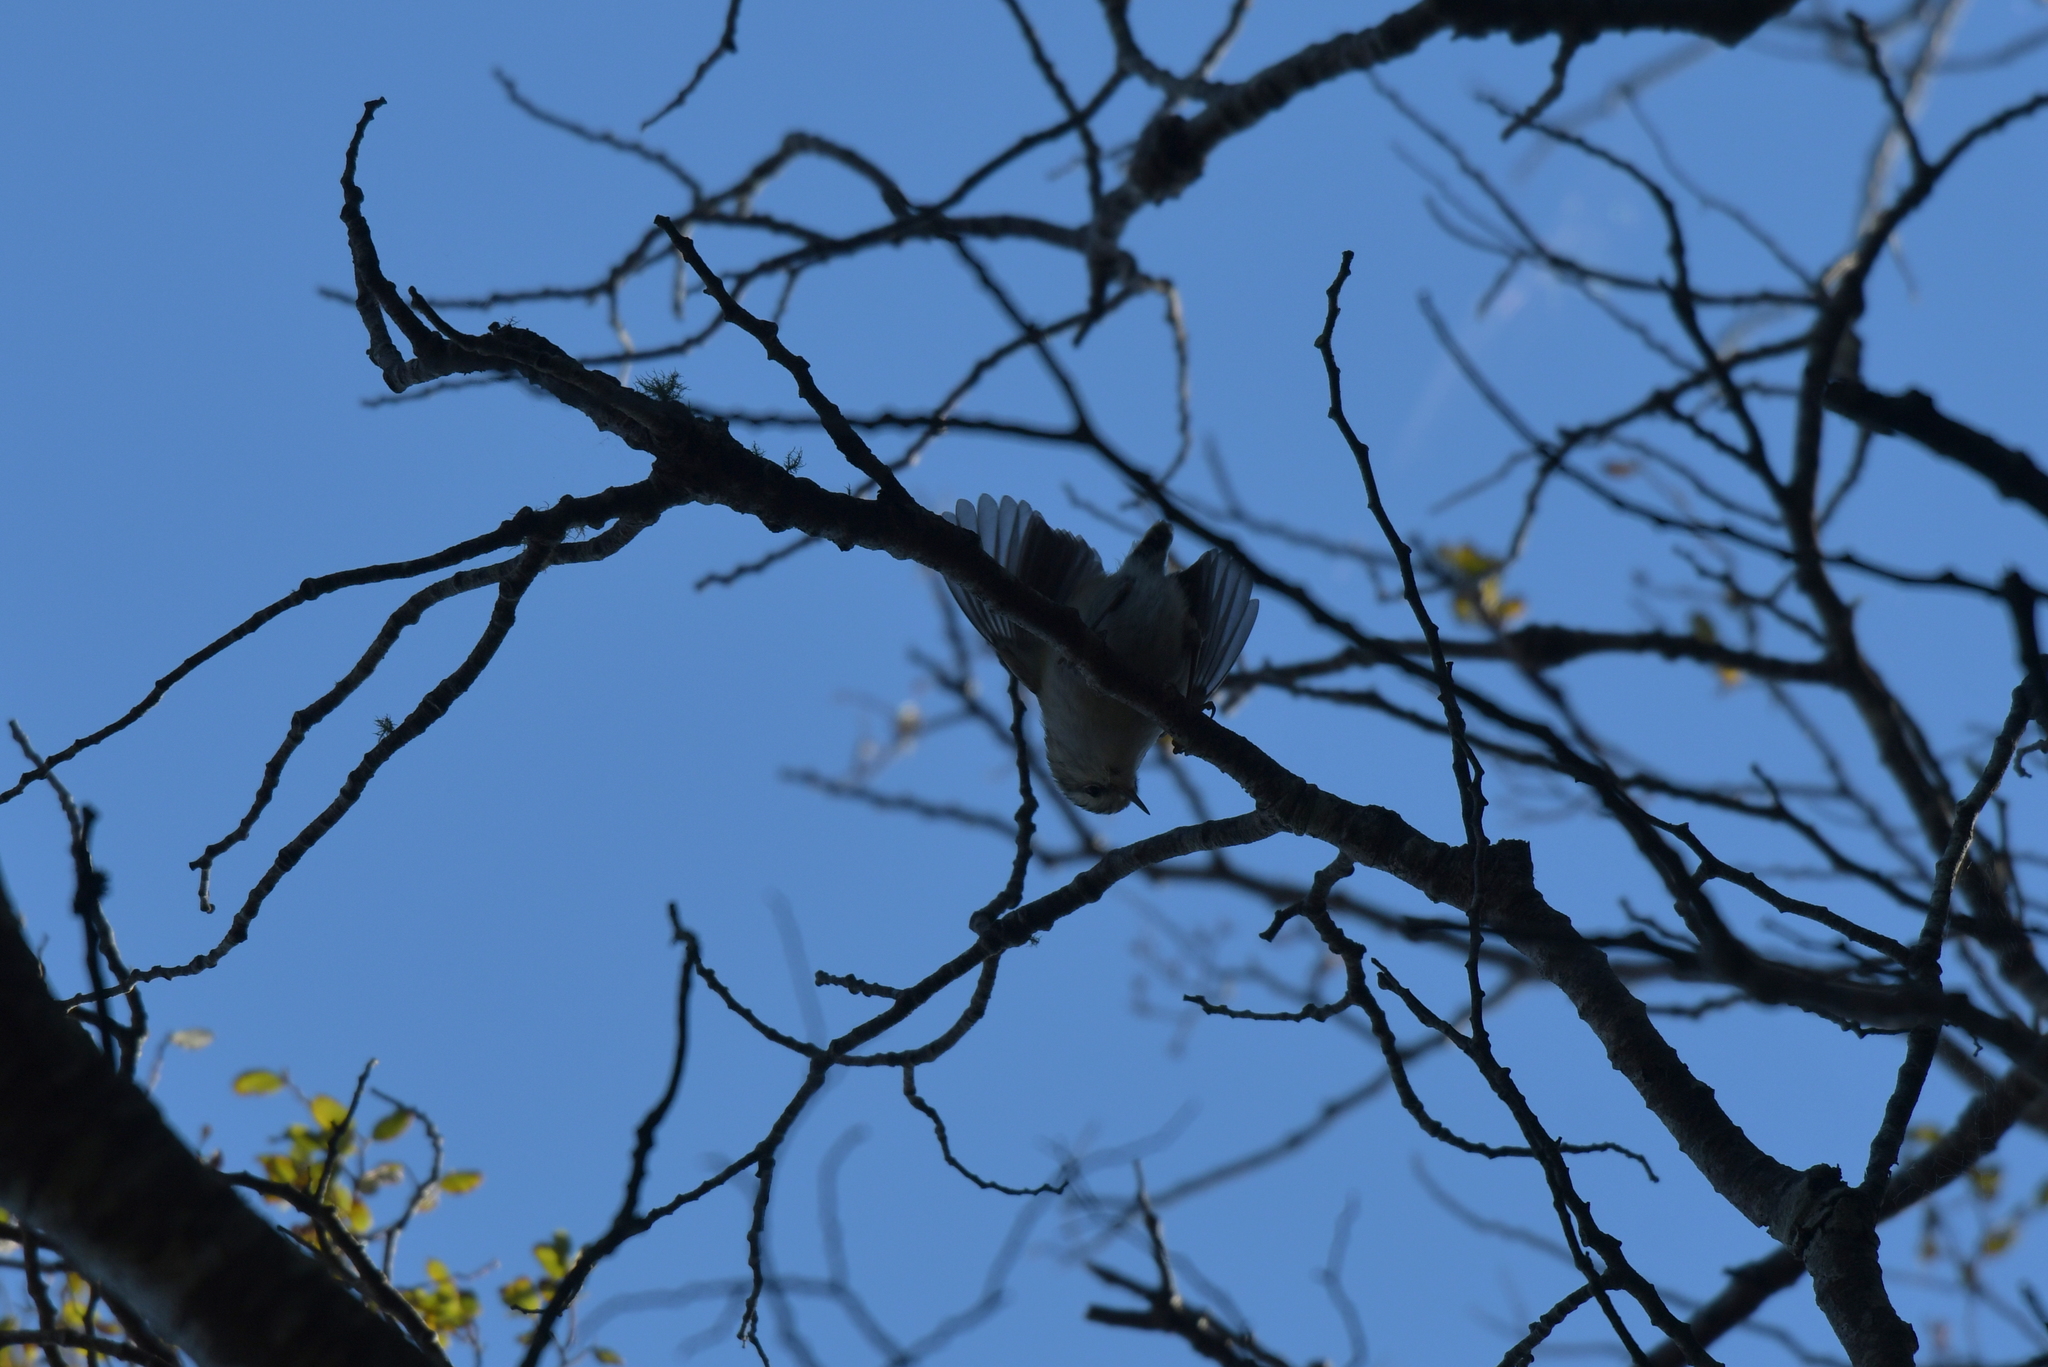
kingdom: Animalia
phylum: Chordata
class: Aves
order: Passeriformes
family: Acanthisittidae
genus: Acanthisitta
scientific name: Acanthisitta chloris
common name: Rifleman
